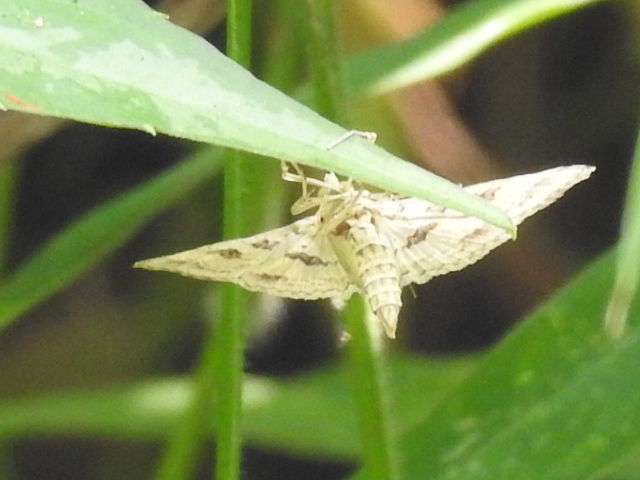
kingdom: Animalia
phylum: Arthropoda
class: Insecta
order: Lepidoptera
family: Crambidae
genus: Sameodes
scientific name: Sameodes cancellalis
